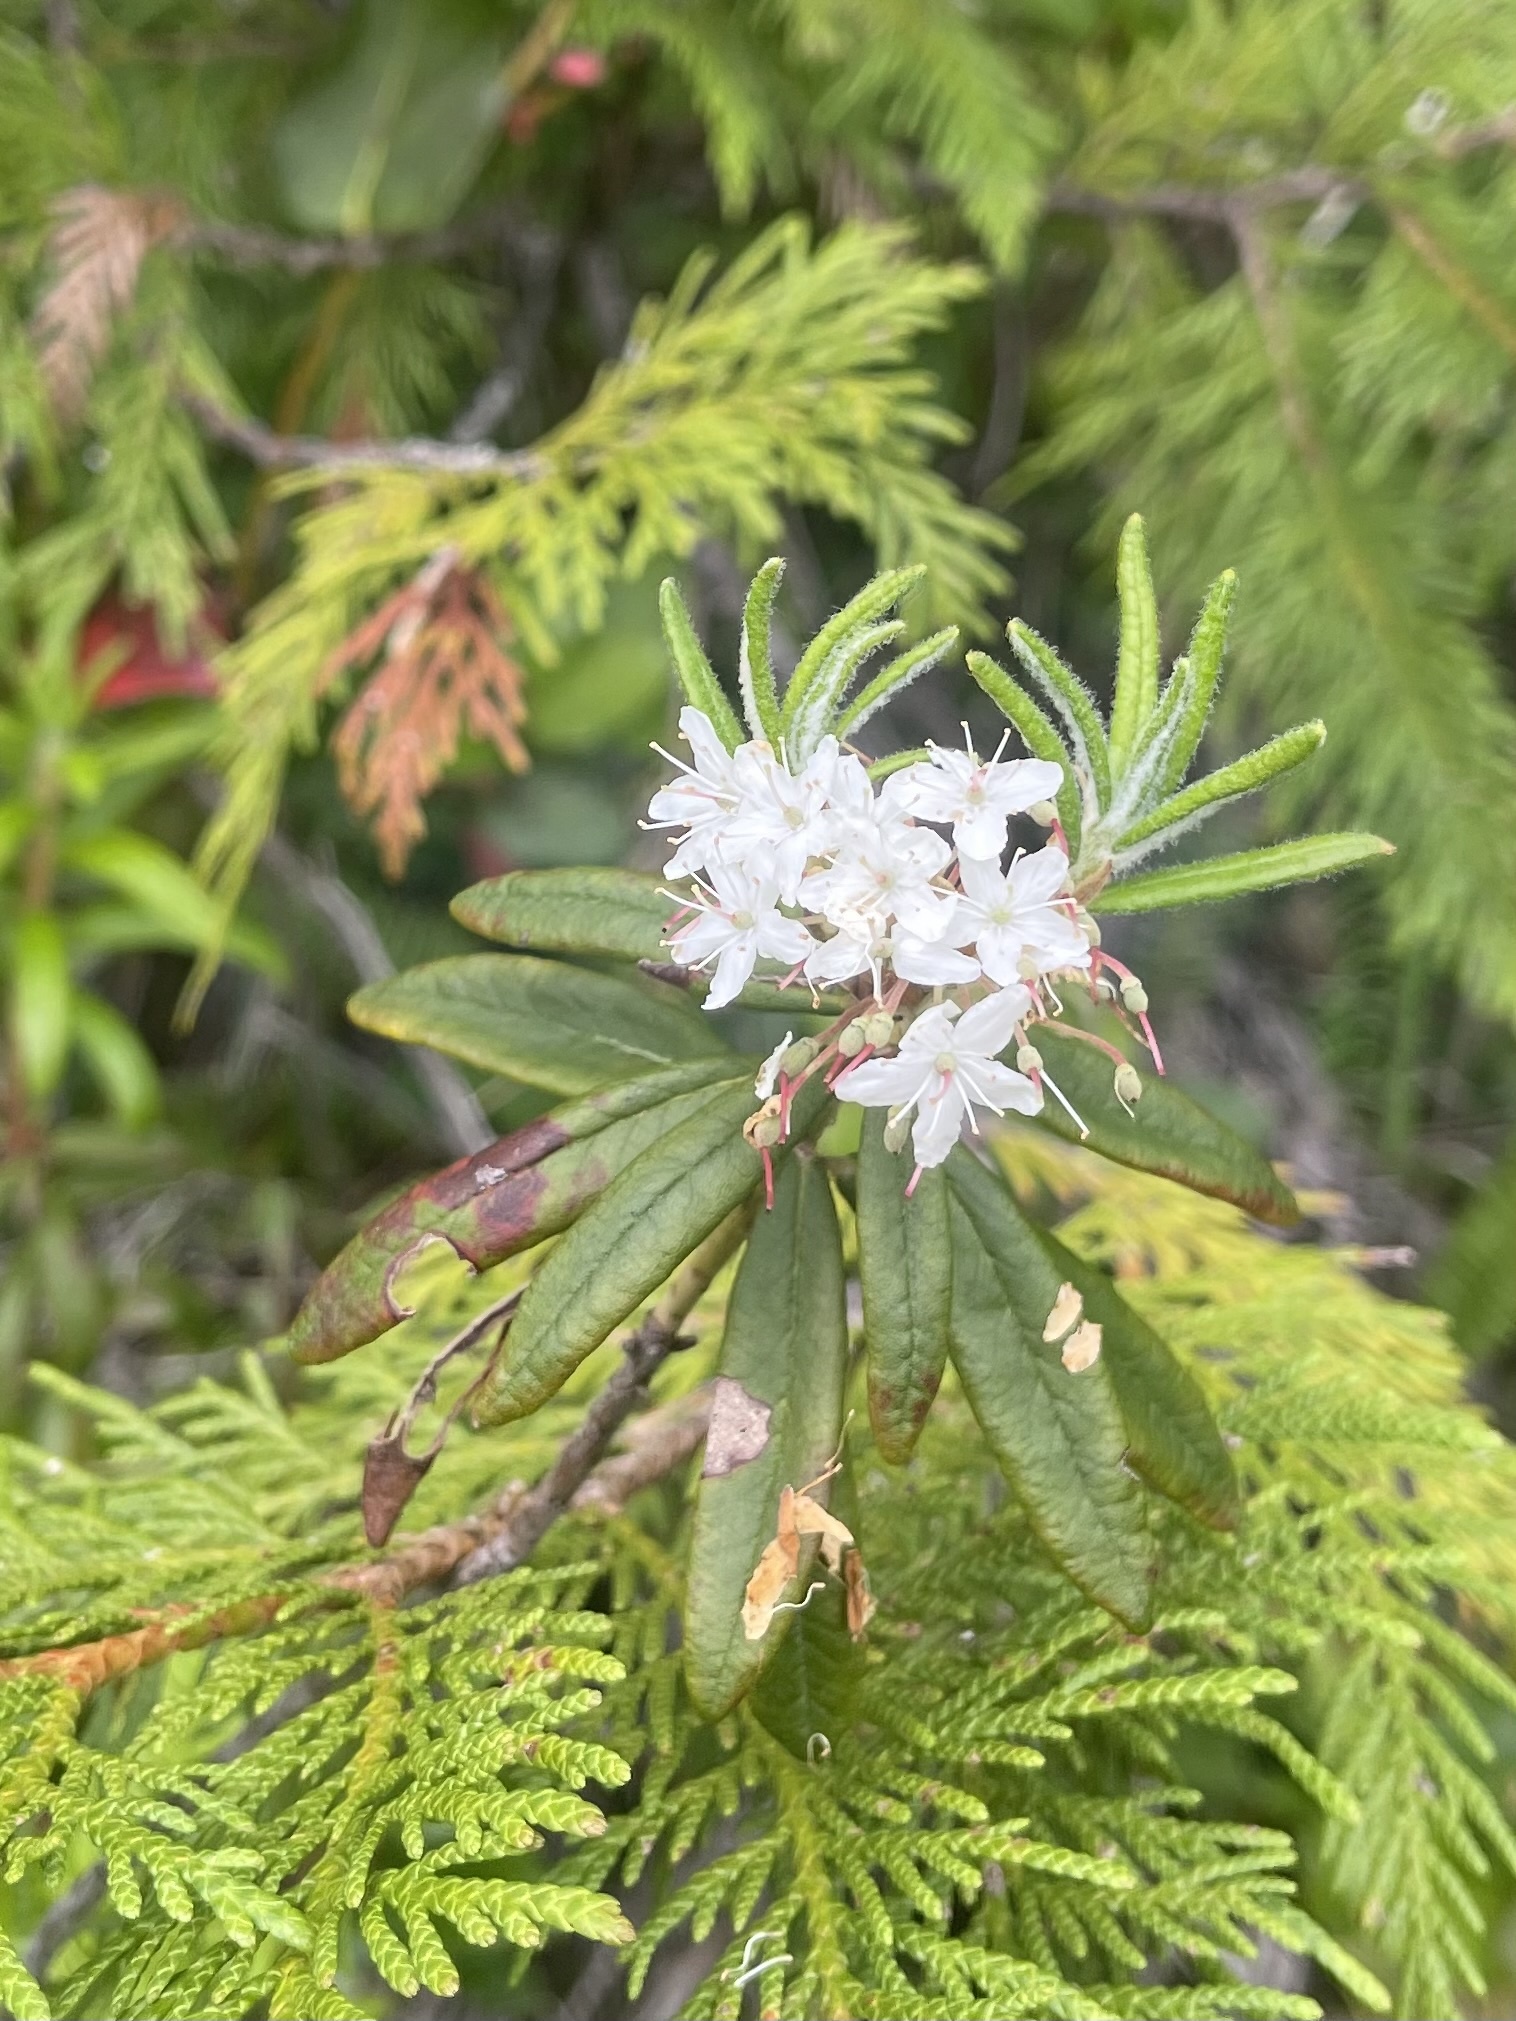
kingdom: Plantae
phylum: Tracheophyta
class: Magnoliopsida
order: Ericales
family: Ericaceae
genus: Rhododendron
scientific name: Rhododendron groenlandicum
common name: Bog labrador tea
